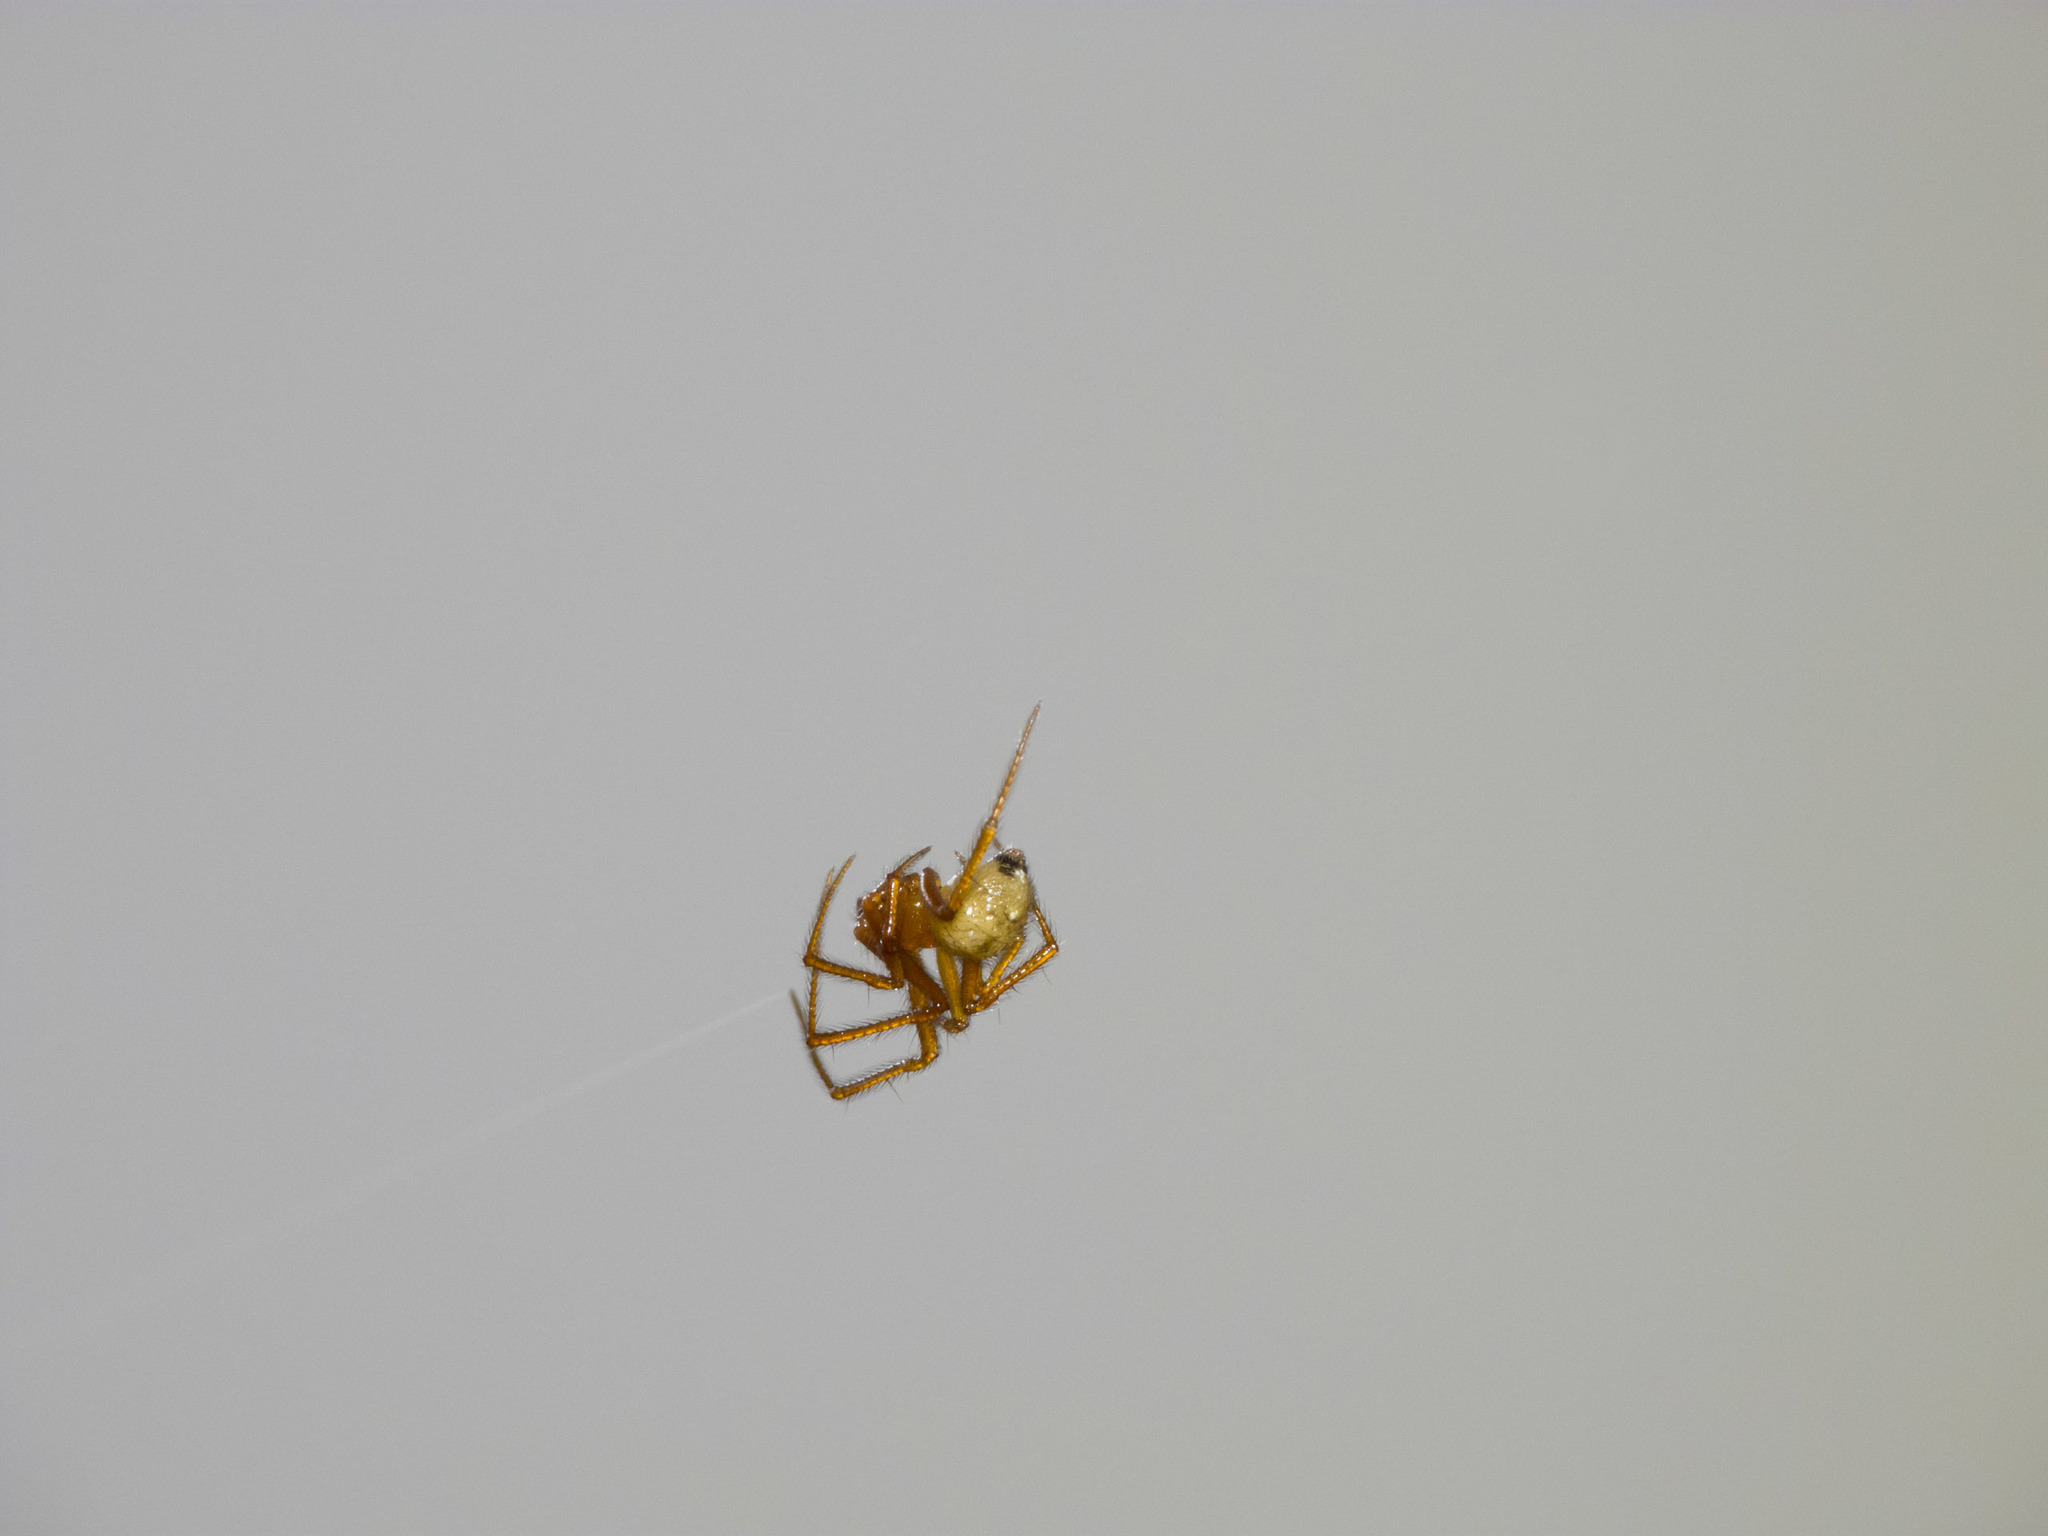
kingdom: Animalia
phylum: Arthropoda
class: Arachnida
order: Araneae
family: Theridiidae
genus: Nesticodes
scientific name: Nesticodes rufipes
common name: Cobweb spiders
